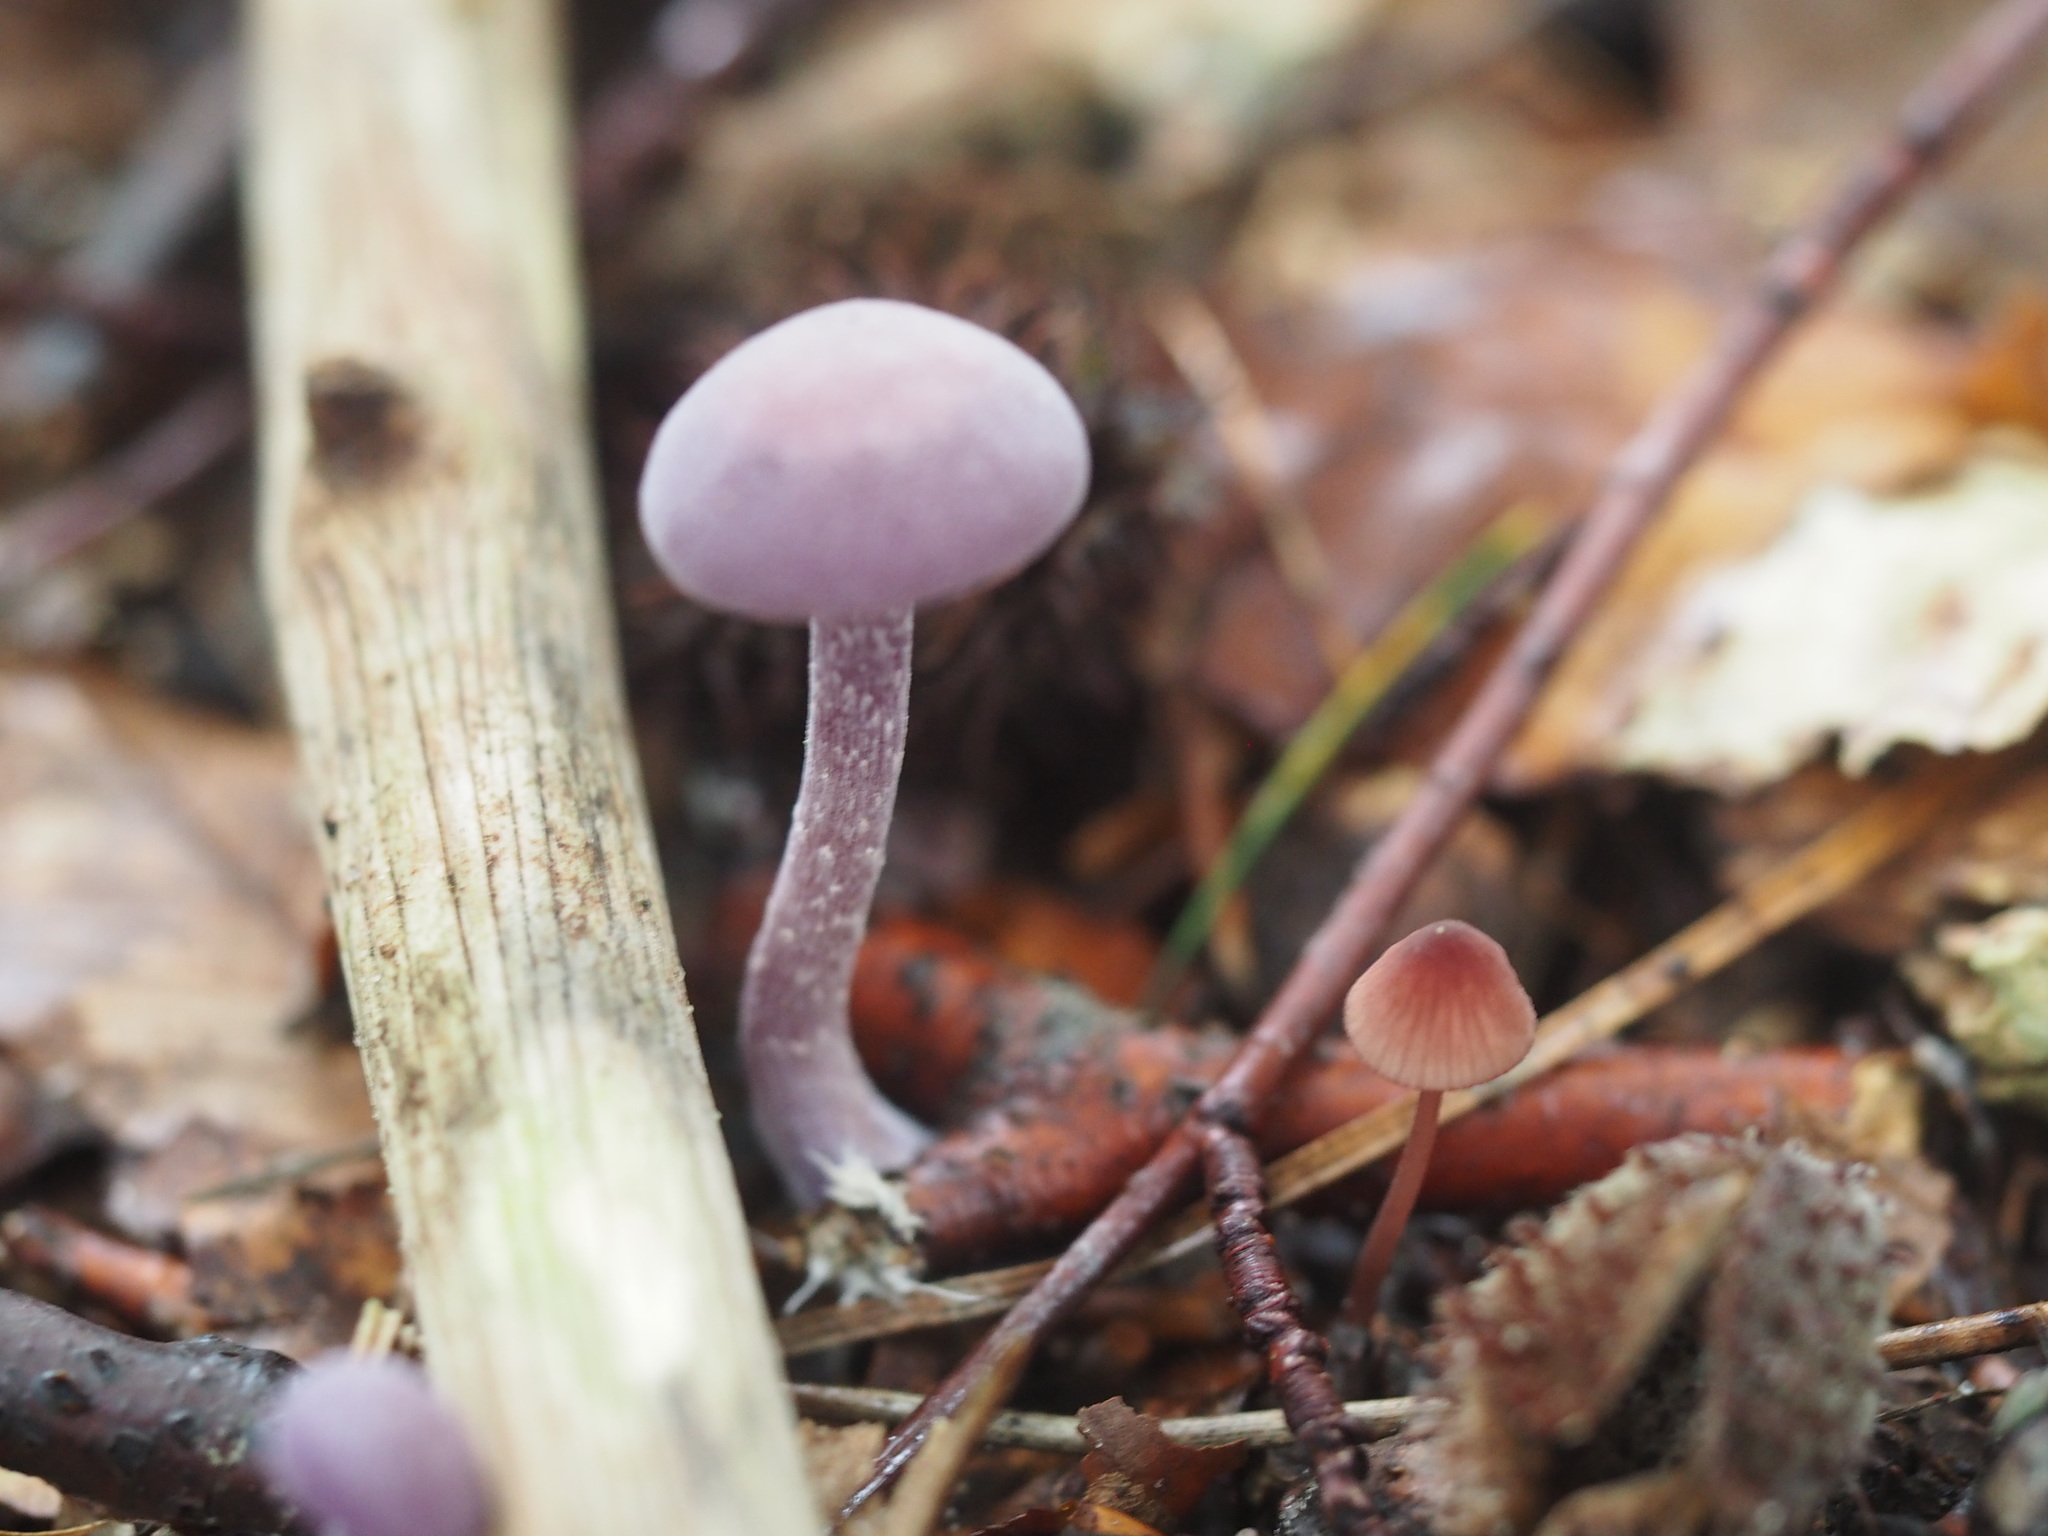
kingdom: Fungi
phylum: Basidiomycota
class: Agaricomycetes
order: Agaricales
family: Hydnangiaceae
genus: Laccaria
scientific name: Laccaria amethystina
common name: Amethyst deceiver
